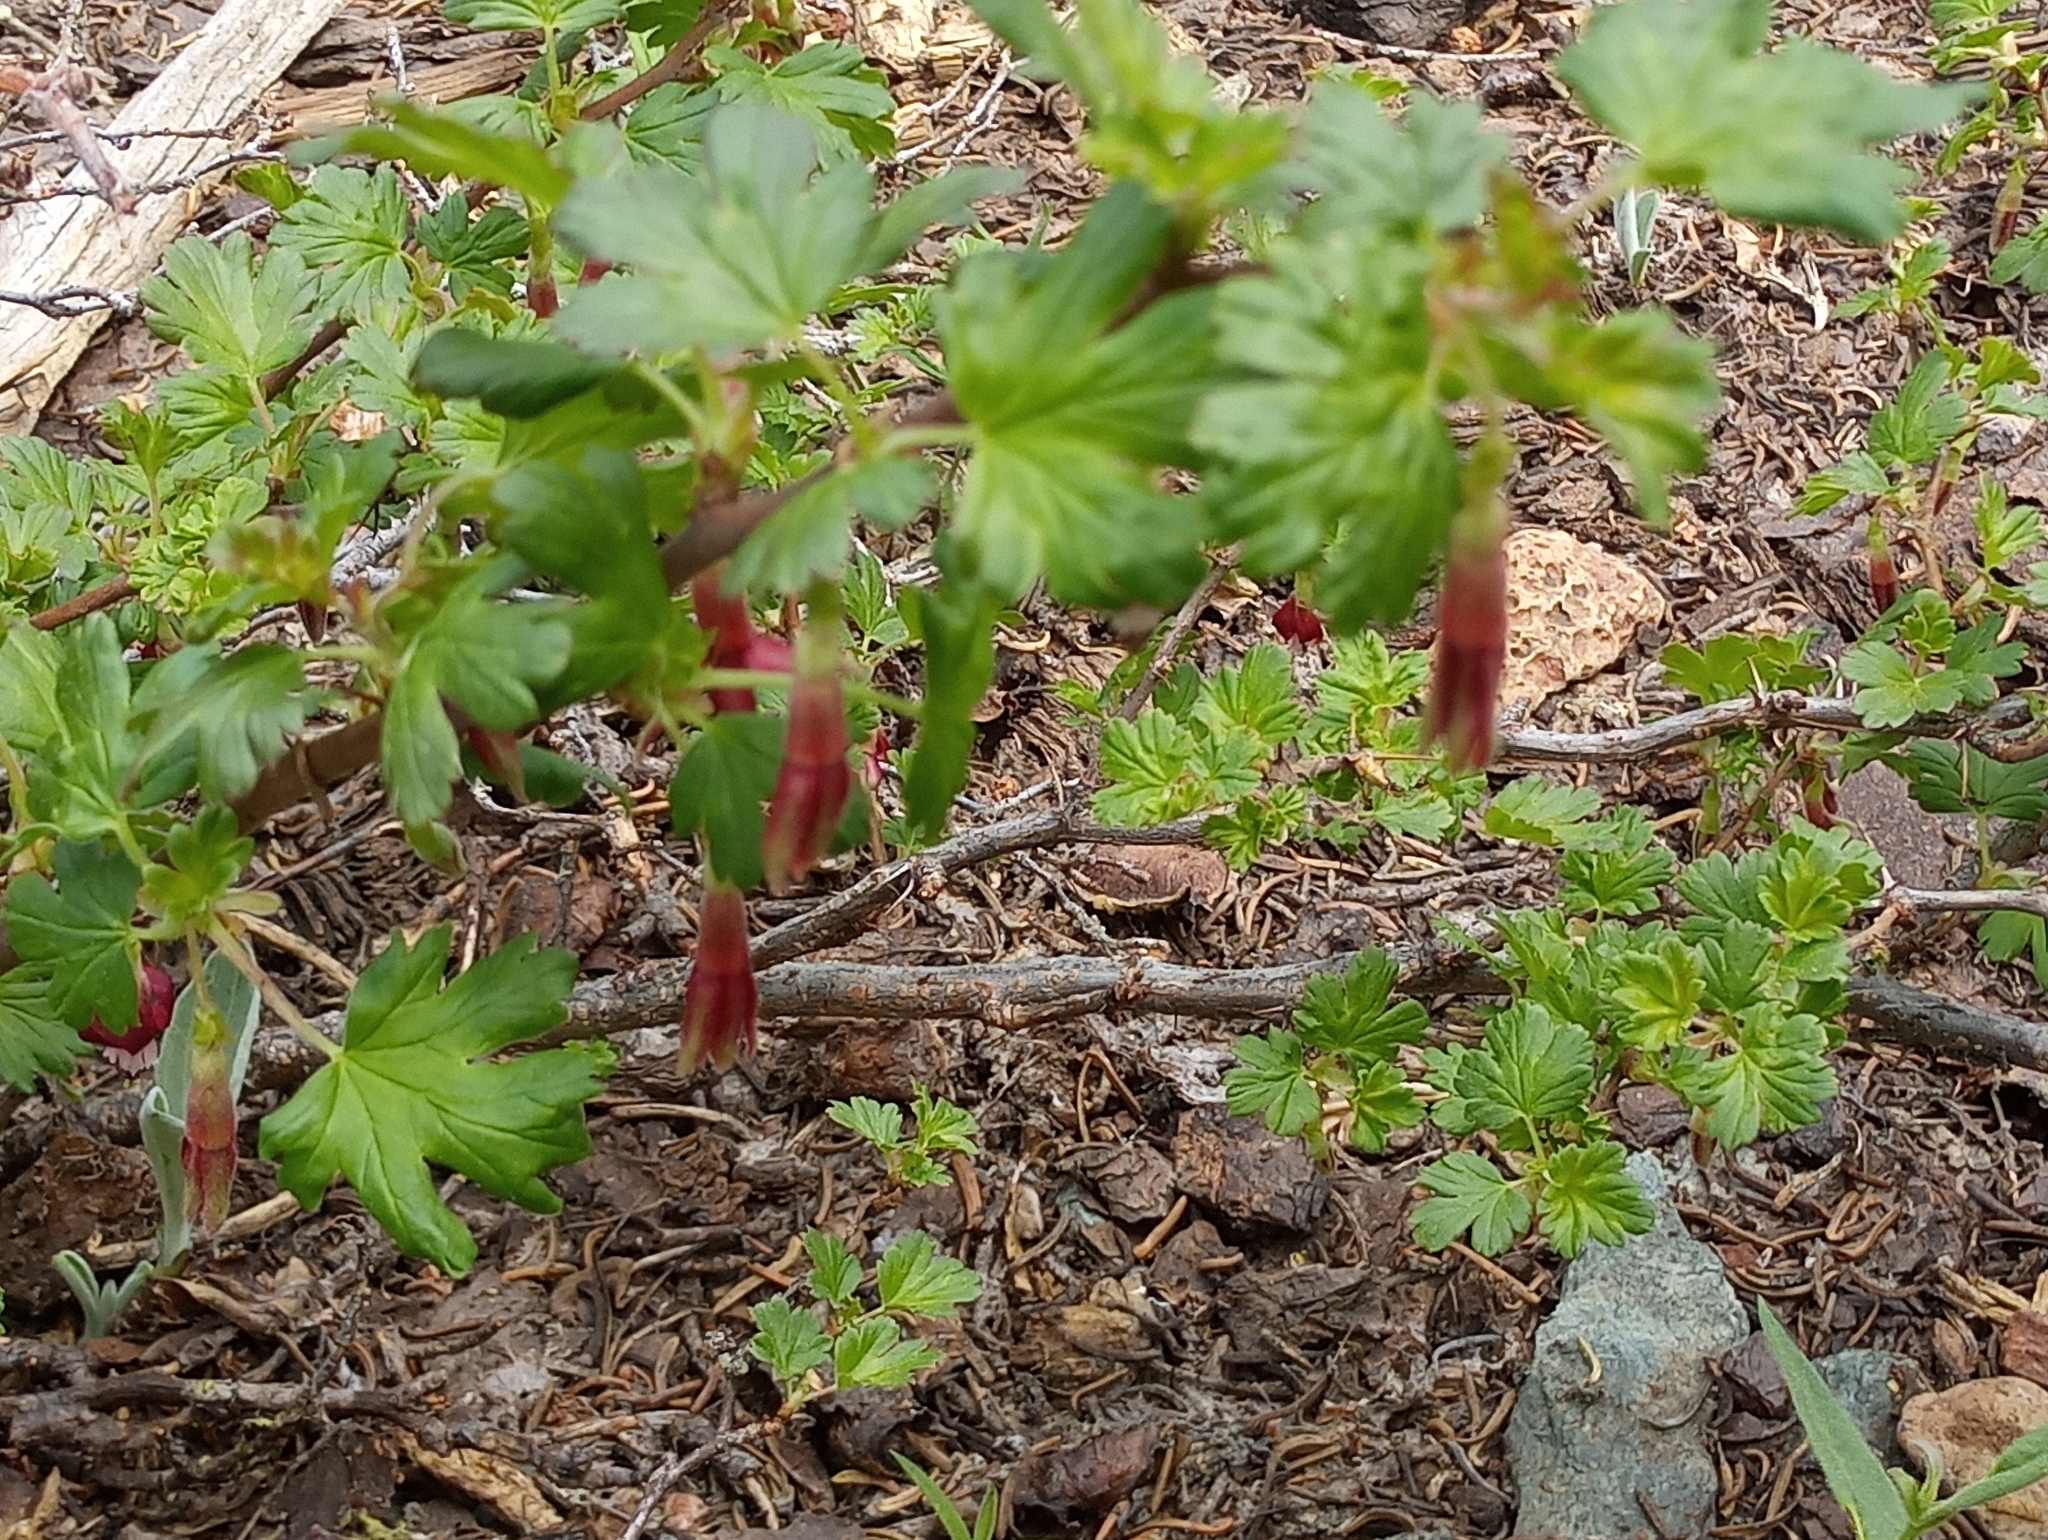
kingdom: Plantae
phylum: Tracheophyta
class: Magnoliopsida
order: Saxifragales
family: Grossulariaceae
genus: Ribes
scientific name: Ribes roezlii
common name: Sierra gooseberry
